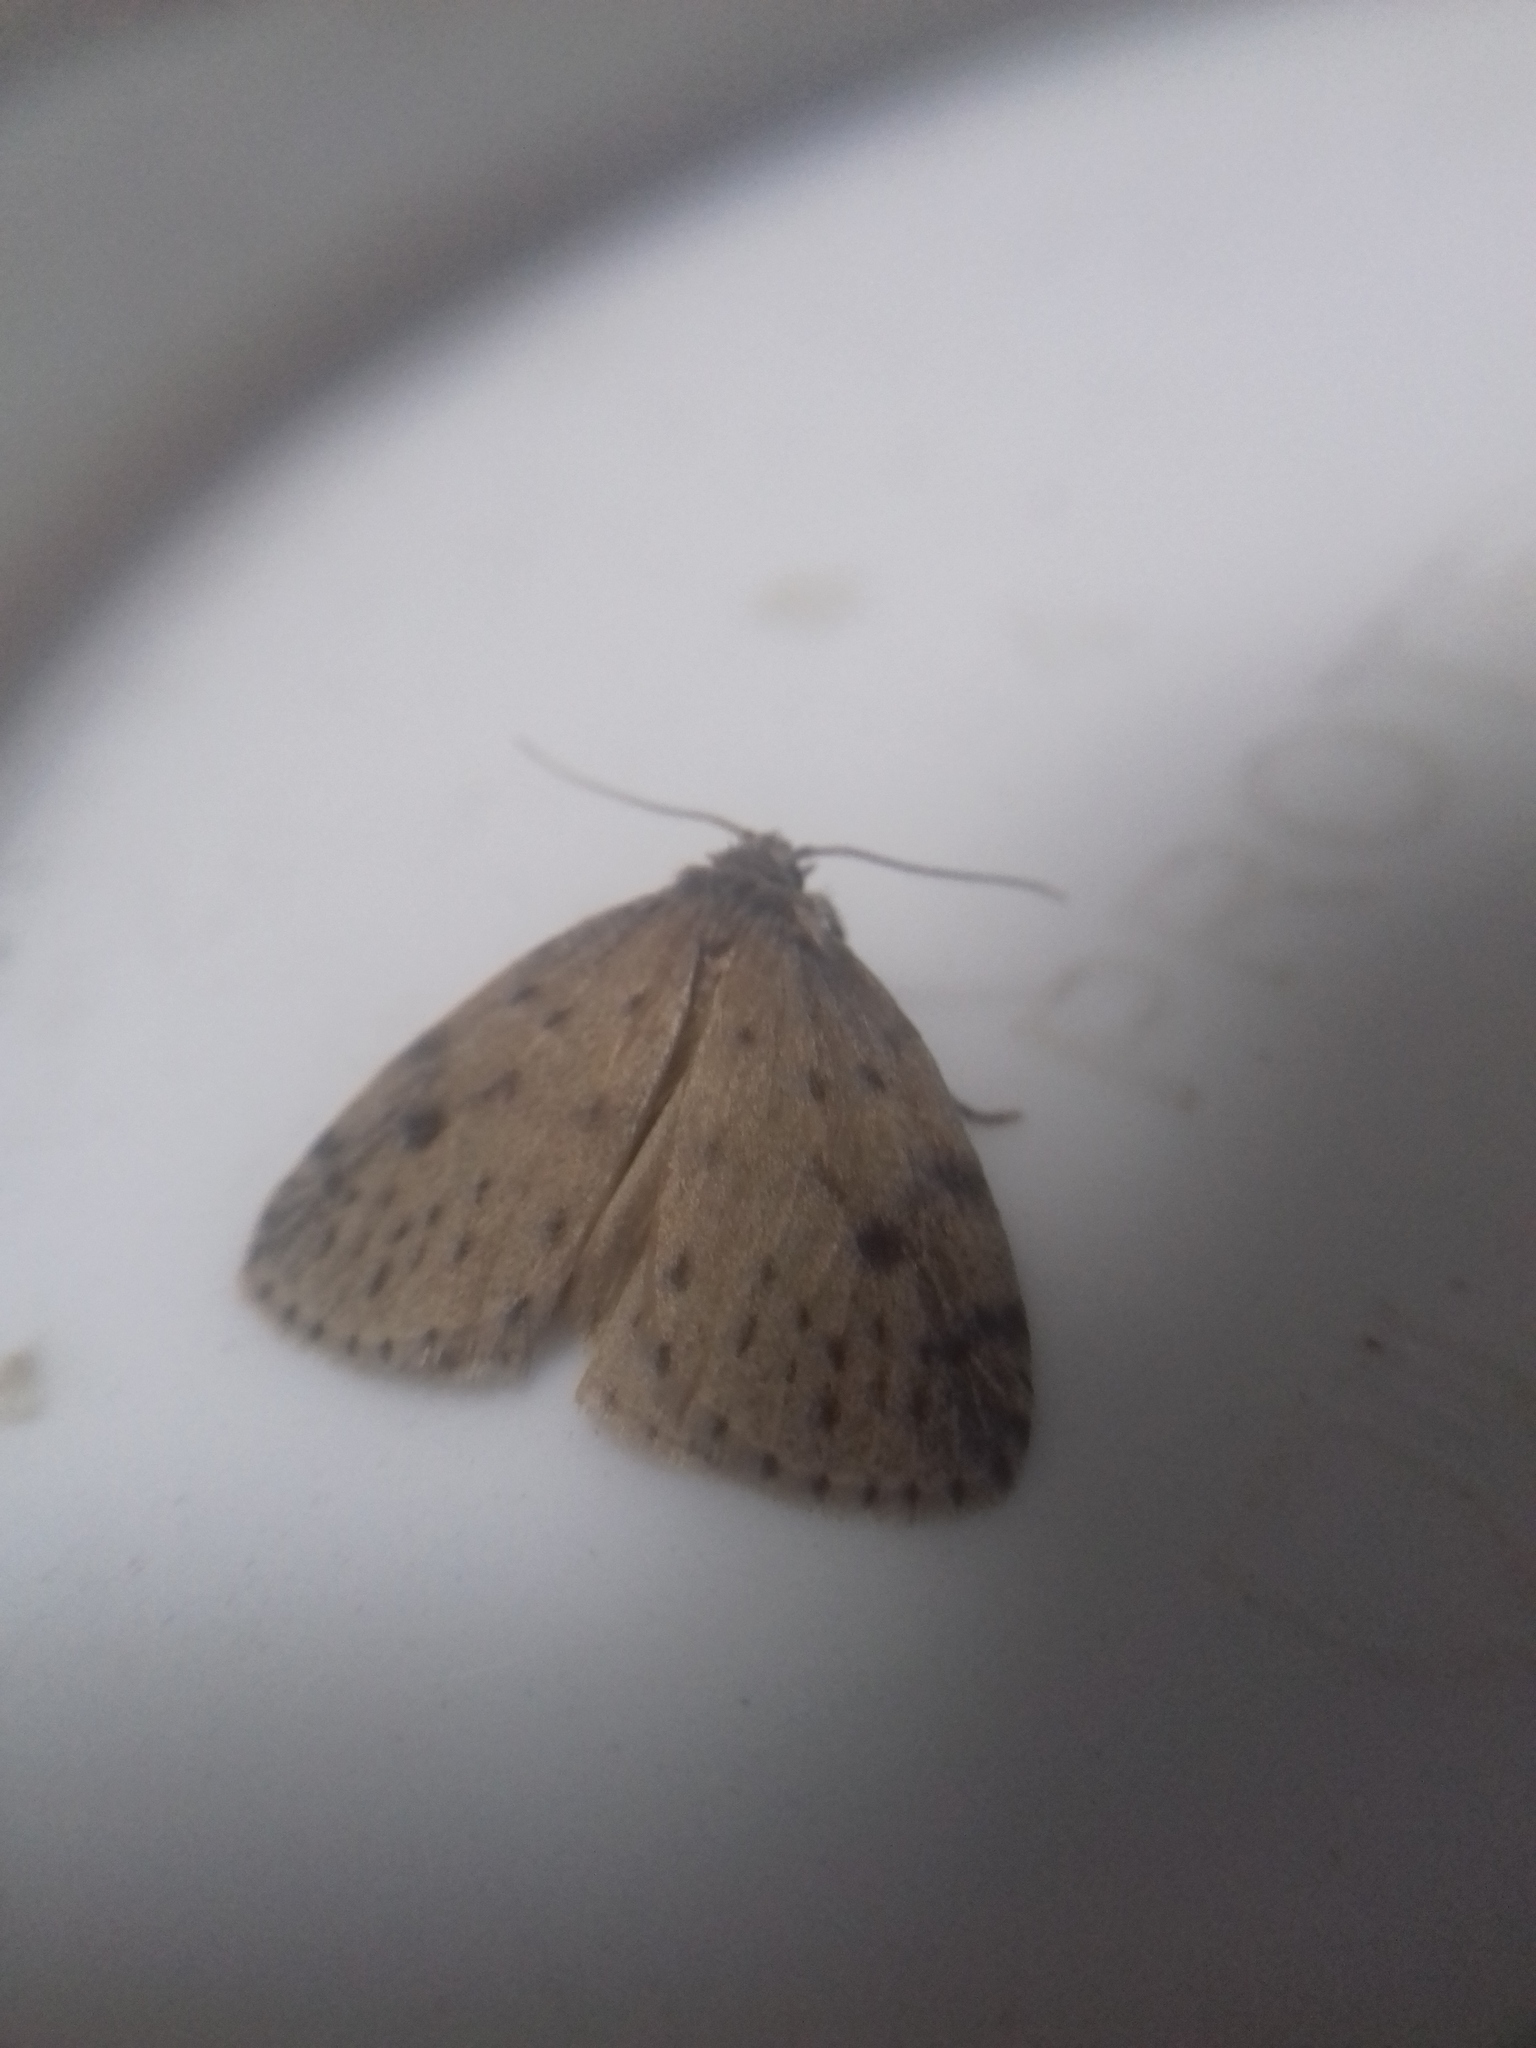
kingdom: Animalia
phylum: Arthropoda
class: Insecta
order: Lepidoptera
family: Erebidae
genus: Thumatha
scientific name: Thumatha senex
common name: Round-winged muslin
